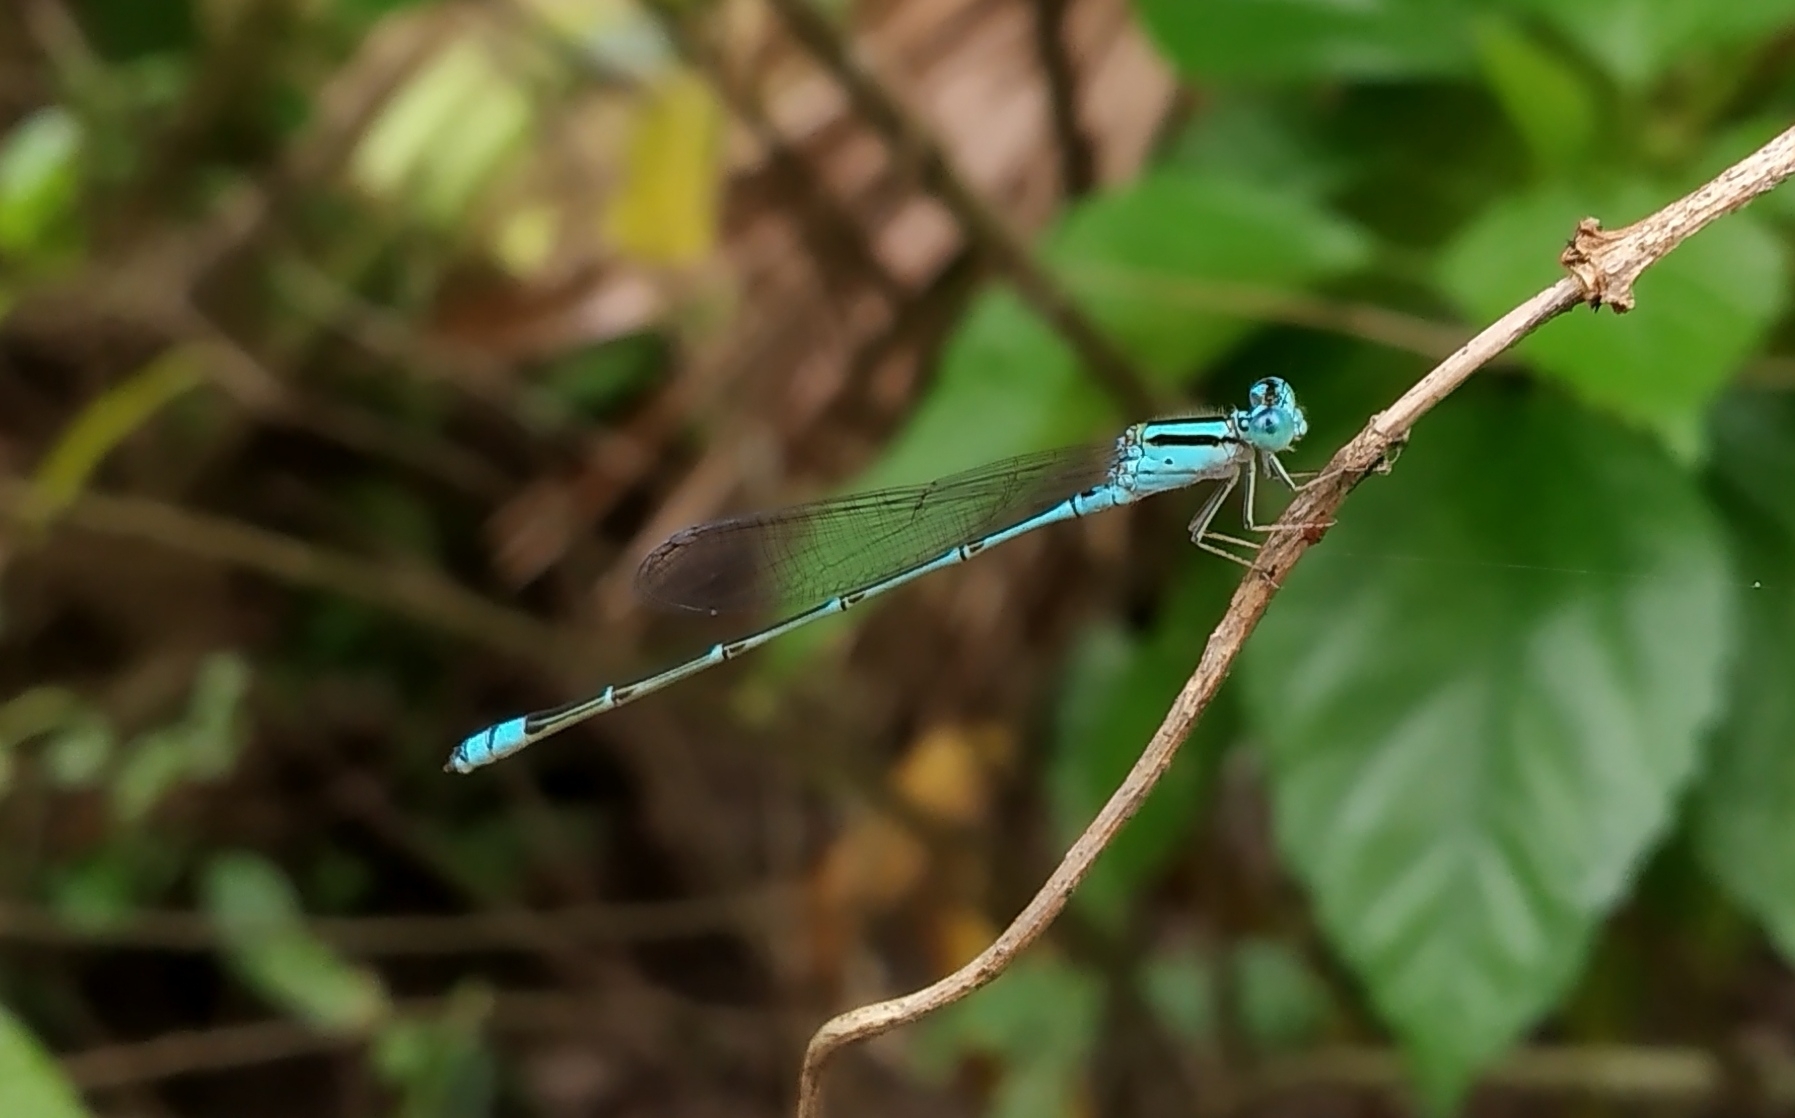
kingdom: Animalia
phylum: Arthropoda
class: Insecta
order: Odonata
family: Coenagrionidae
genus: Pseudagrion
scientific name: Pseudagrion microcephalum
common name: Blue riverdamsel
